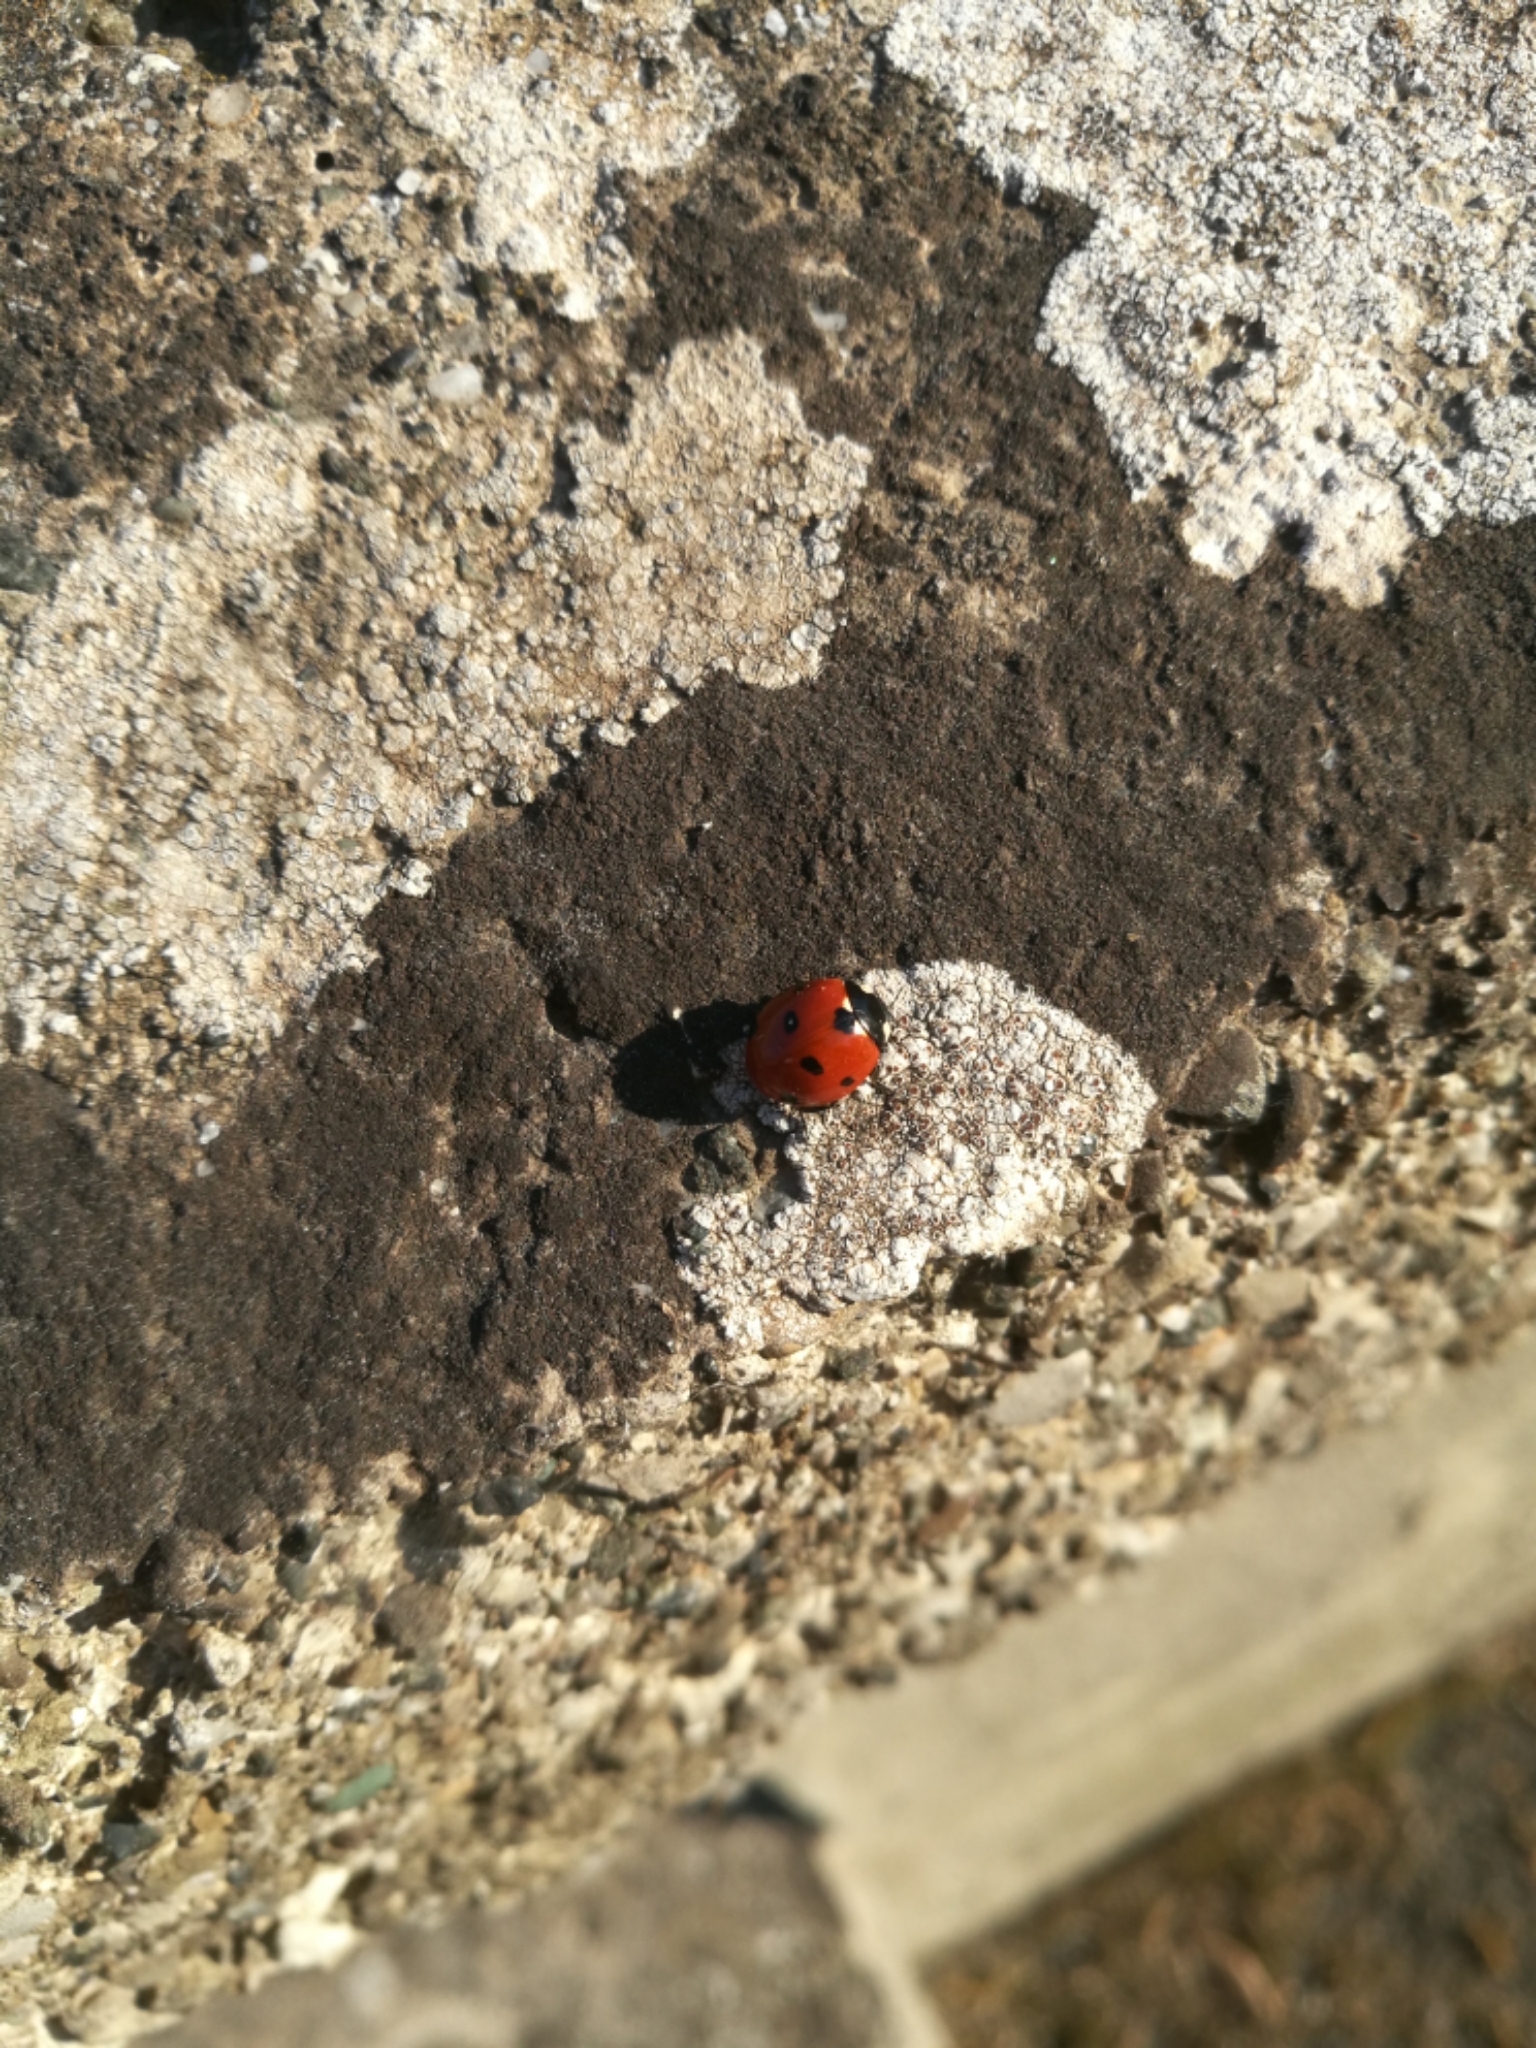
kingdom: Animalia
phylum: Arthropoda
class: Insecta
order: Coleoptera
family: Coccinellidae
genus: Coccinella
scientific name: Coccinella septempunctata
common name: Sevenspotted lady beetle
